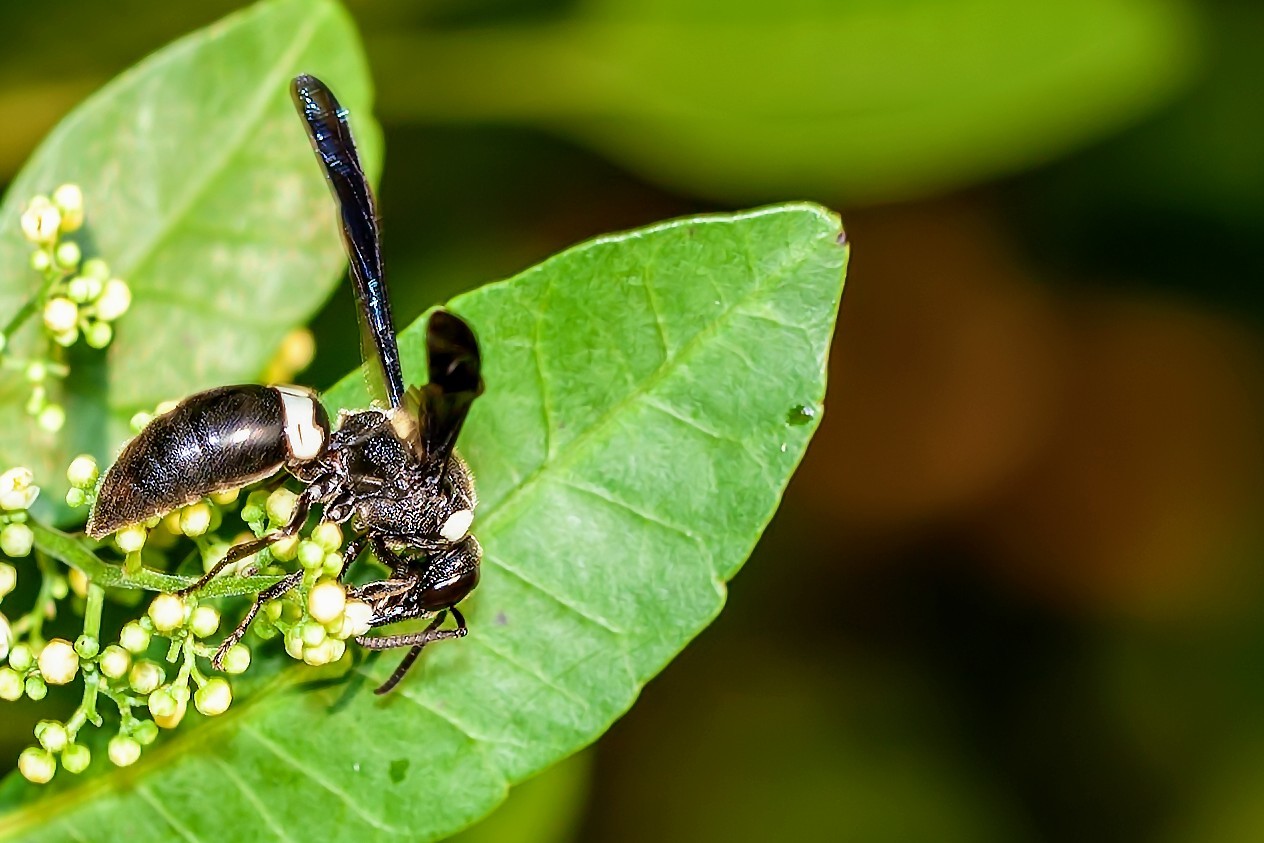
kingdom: Animalia
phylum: Arthropoda
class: Insecta
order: Hymenoptera
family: Eumenidae
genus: Monobia
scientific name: Monobia quadridens
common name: Four-toothed mason wasp
